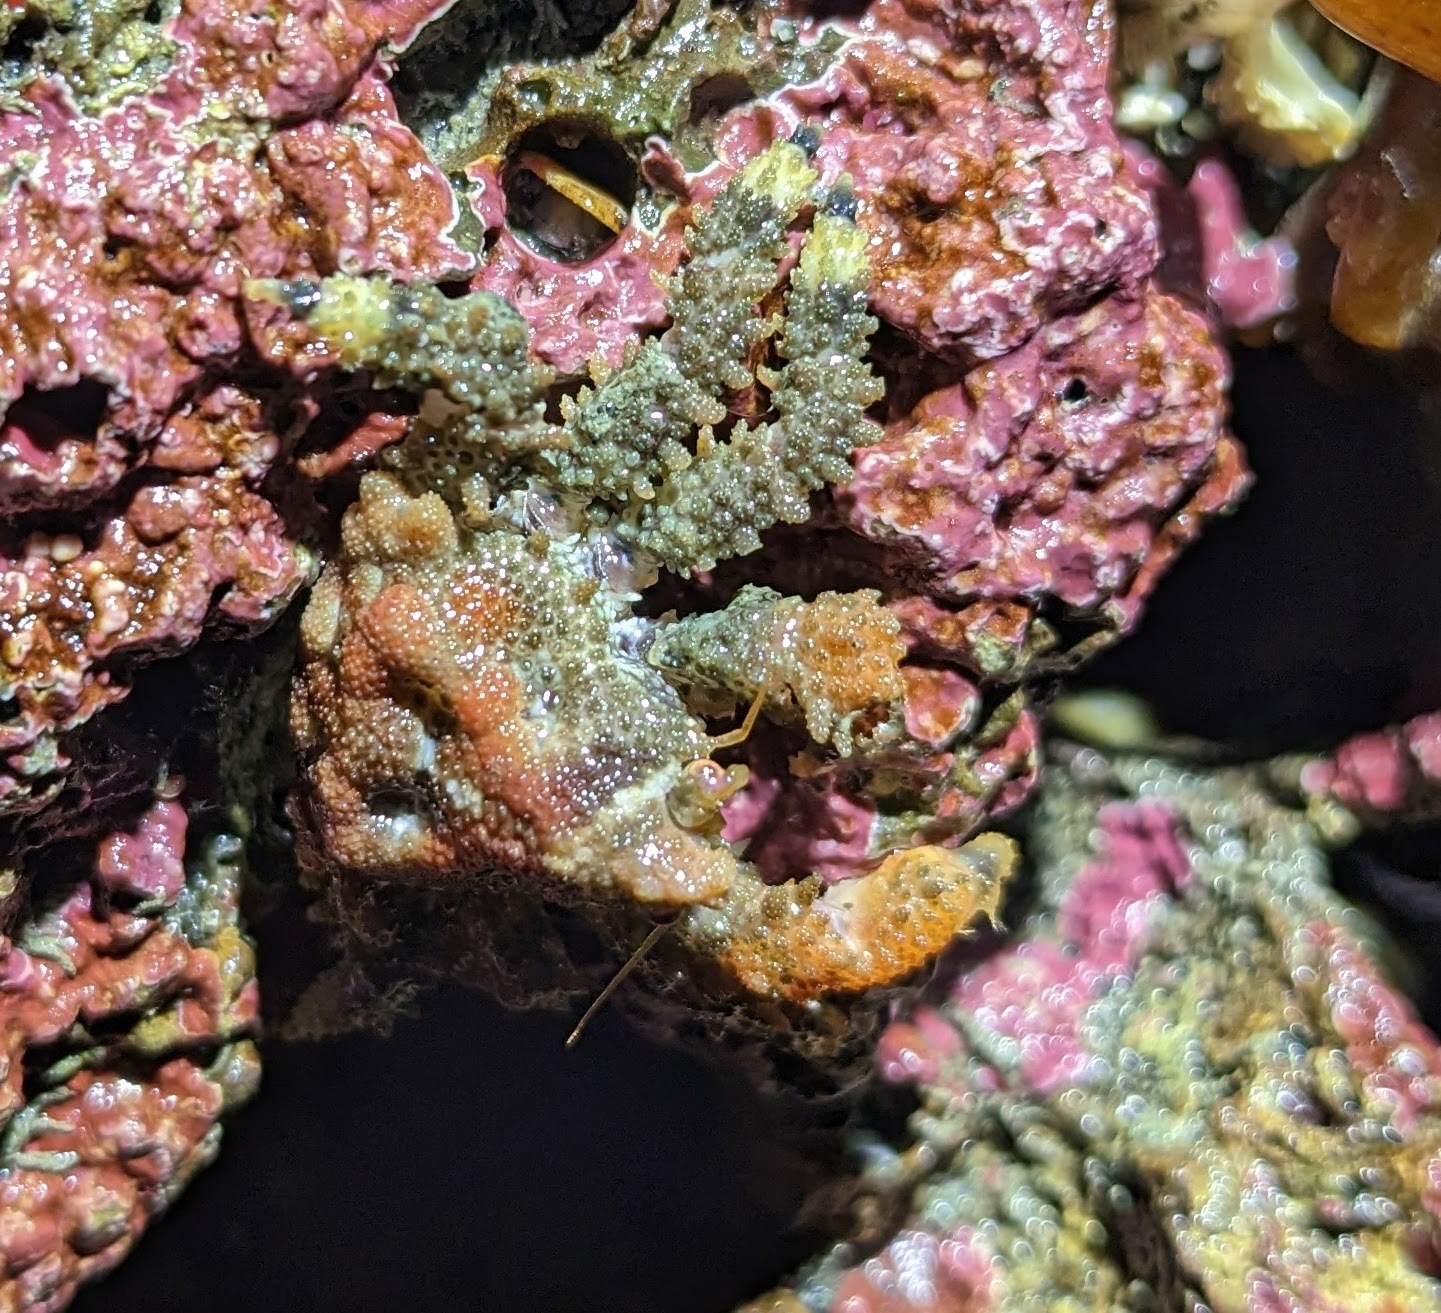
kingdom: Animalia
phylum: Arthropoda
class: Malacostraca
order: Decapoda
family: Lithodidae
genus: Phyllolithodes
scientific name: Phyllolithodes papillosus
